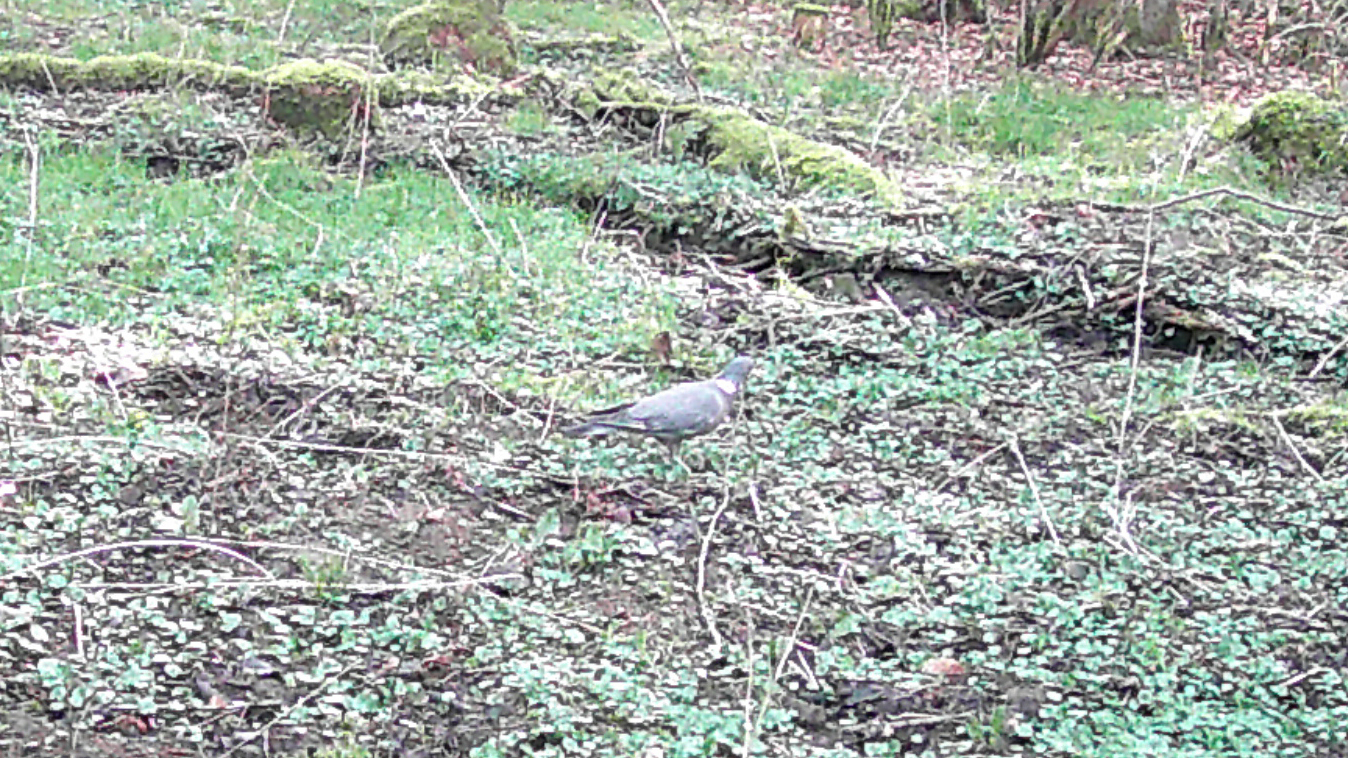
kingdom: Animalia
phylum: Chordata
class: Aves
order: Columbiformes
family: Columbidae
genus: Columba
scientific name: Columba palumbus
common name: Common wood pigeon
